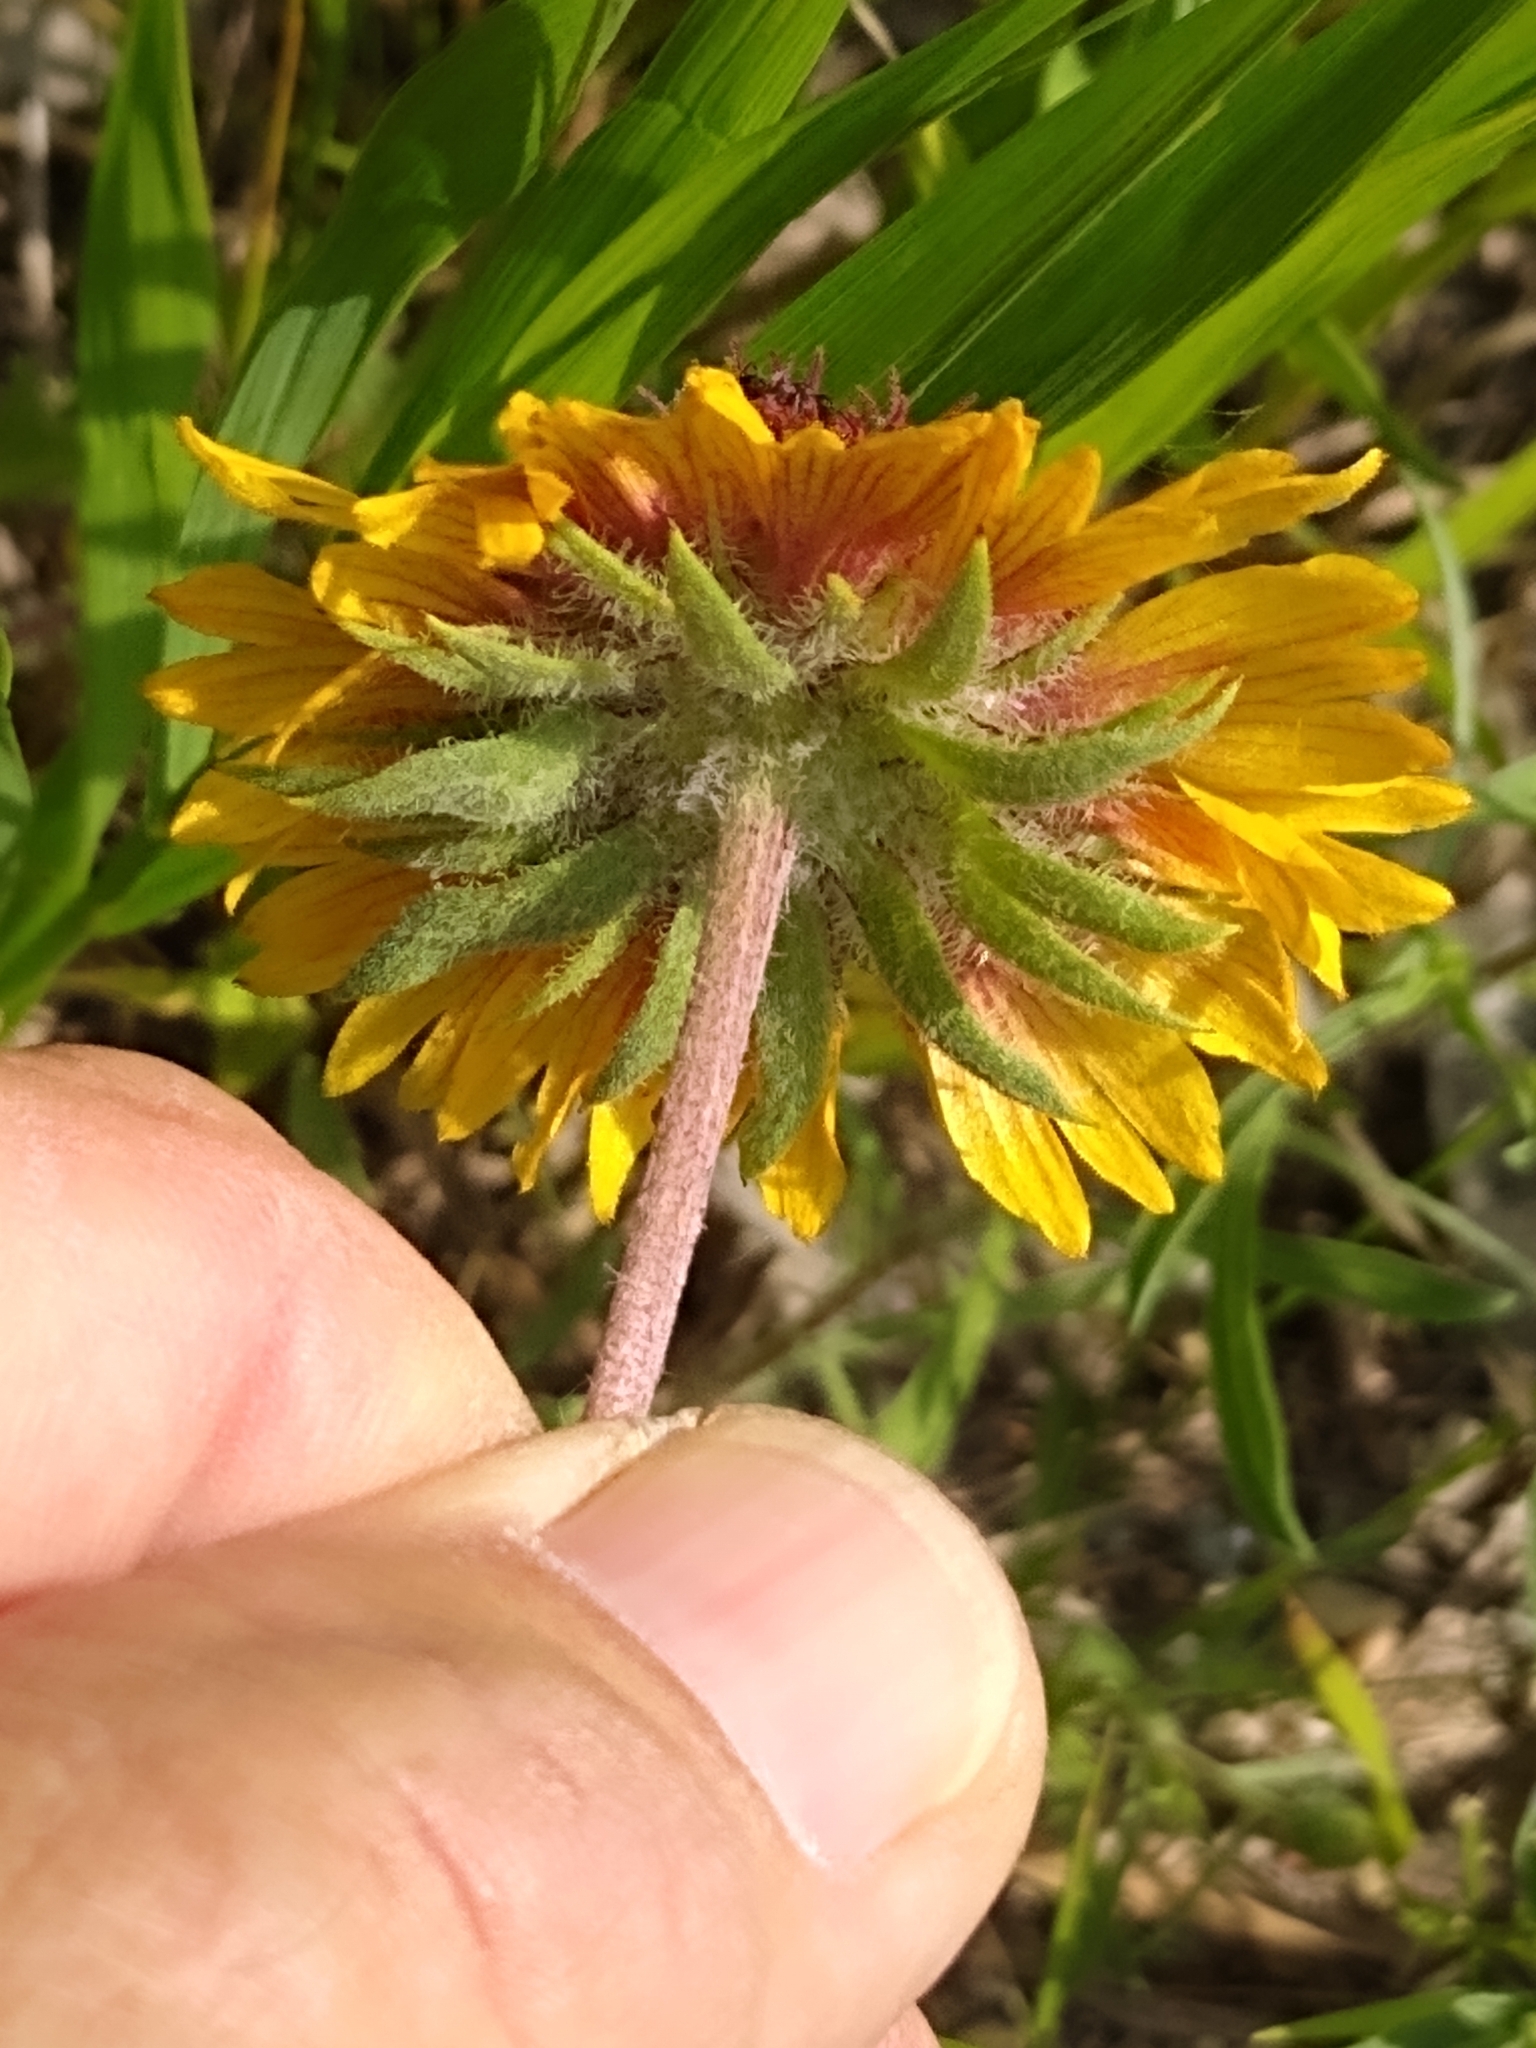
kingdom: Plantae
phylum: Tracheophyta
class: Magnoliopsida
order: Asterales
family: Asteraceae
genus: Gaillardia
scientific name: Gaillardia aristata
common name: Blanket-flower
